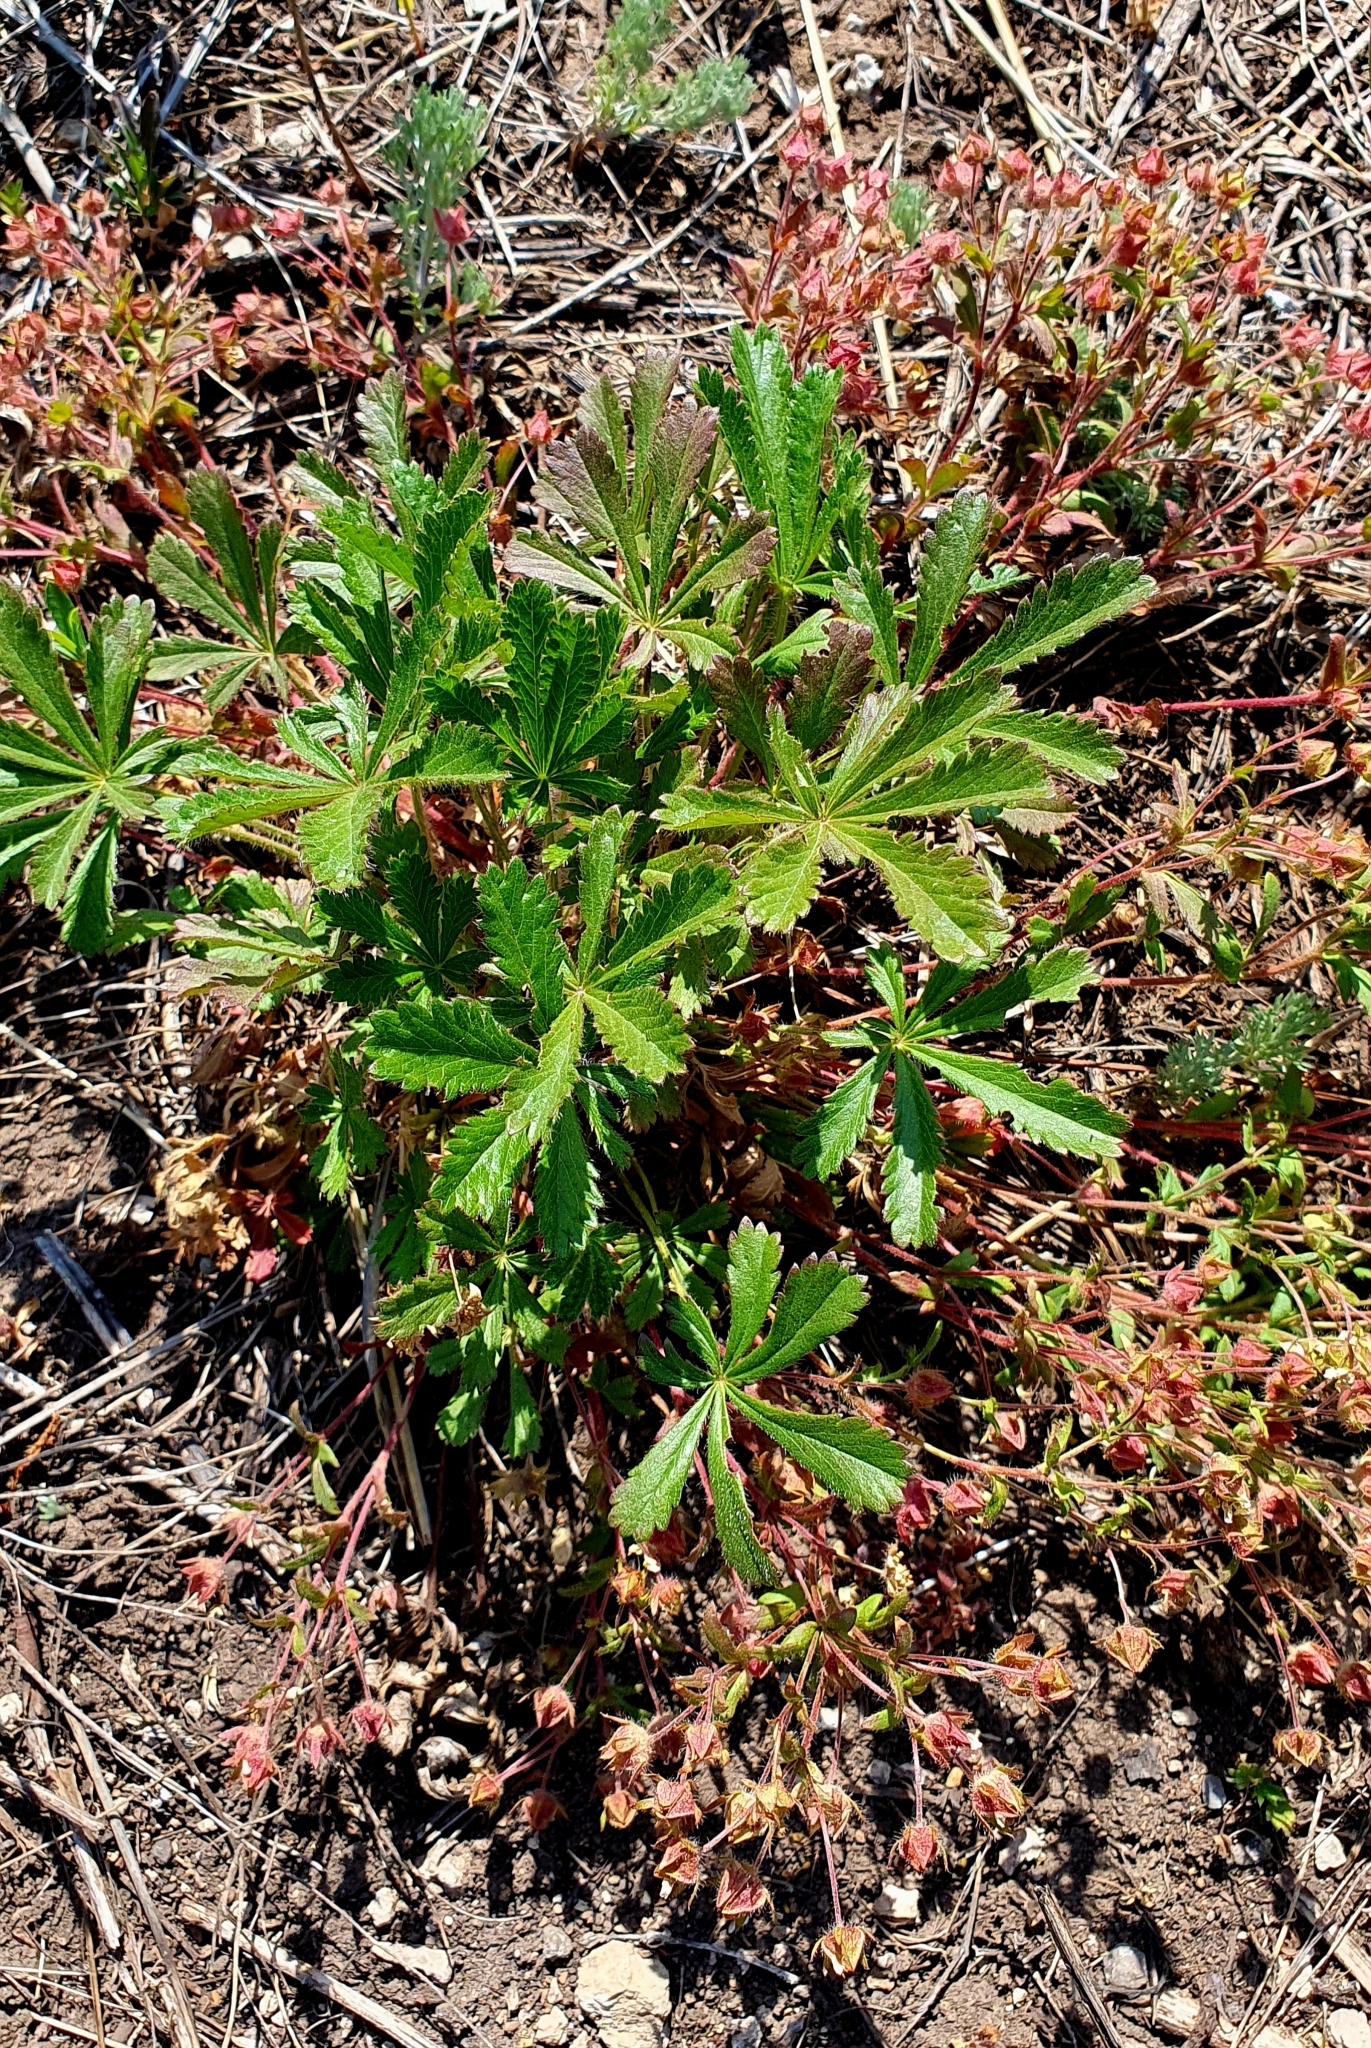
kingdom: Plantae
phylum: Tracheophyta
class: Magnoliopsida
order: Rosales
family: Rosaceae
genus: Potentilla
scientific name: Potentilla humifusa
